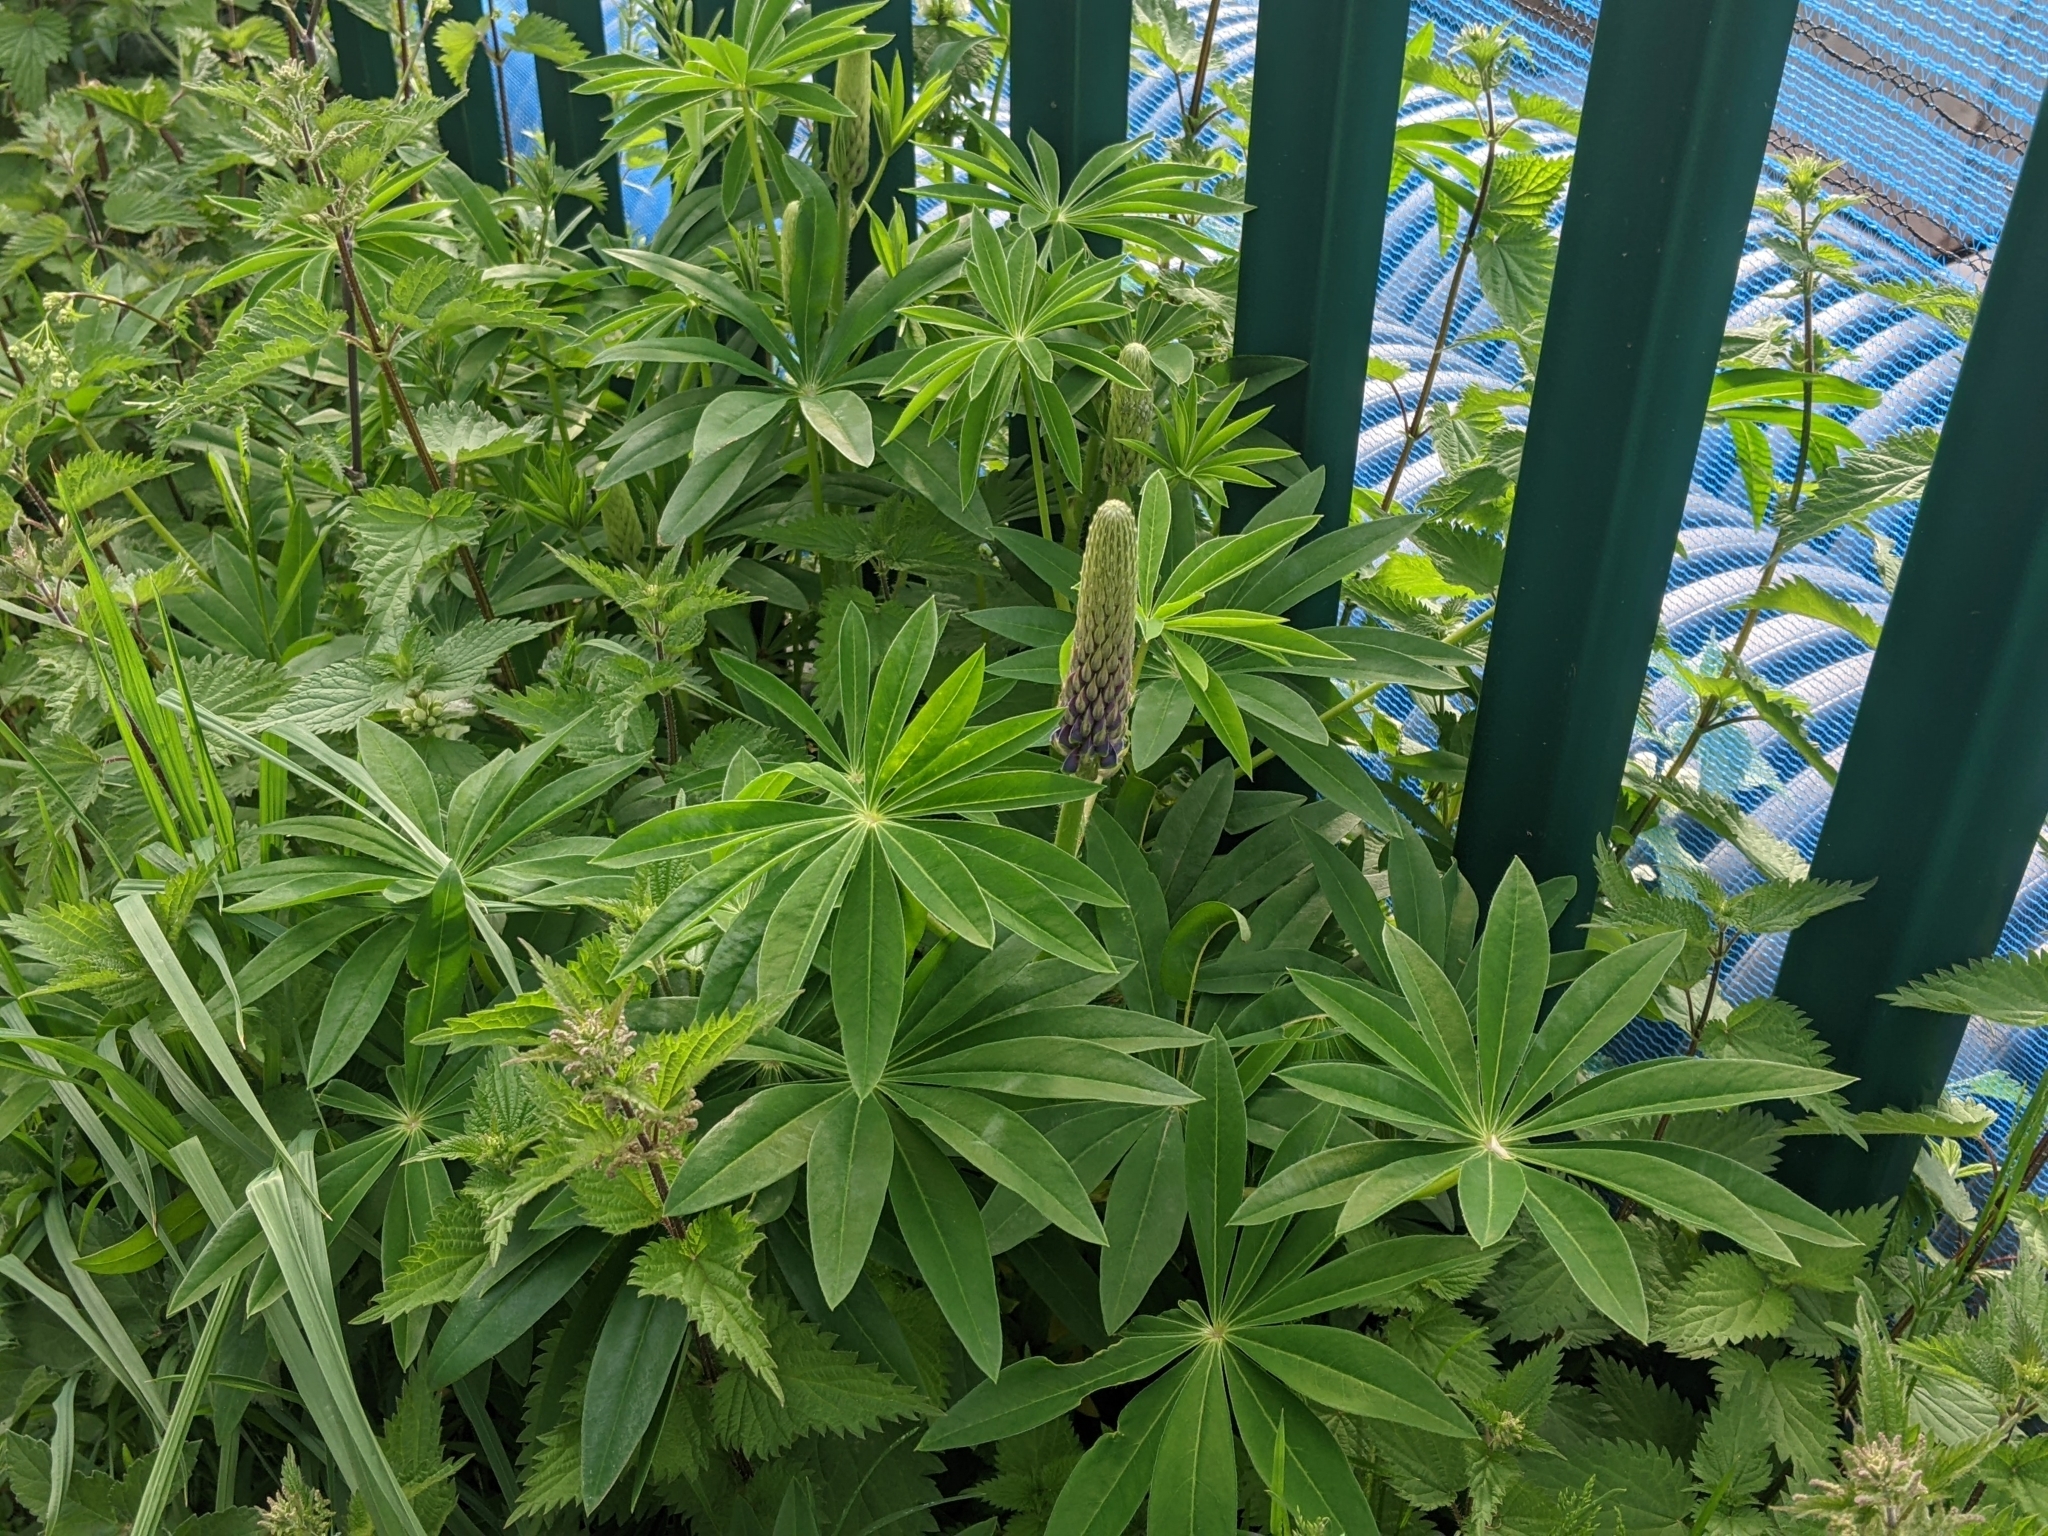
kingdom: Plantae
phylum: Tracheophyta
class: Magnoliopsida
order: Fabales
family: Fabaceae
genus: Lupinus
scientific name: Lupinus polyphyllus
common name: Garden lupin
